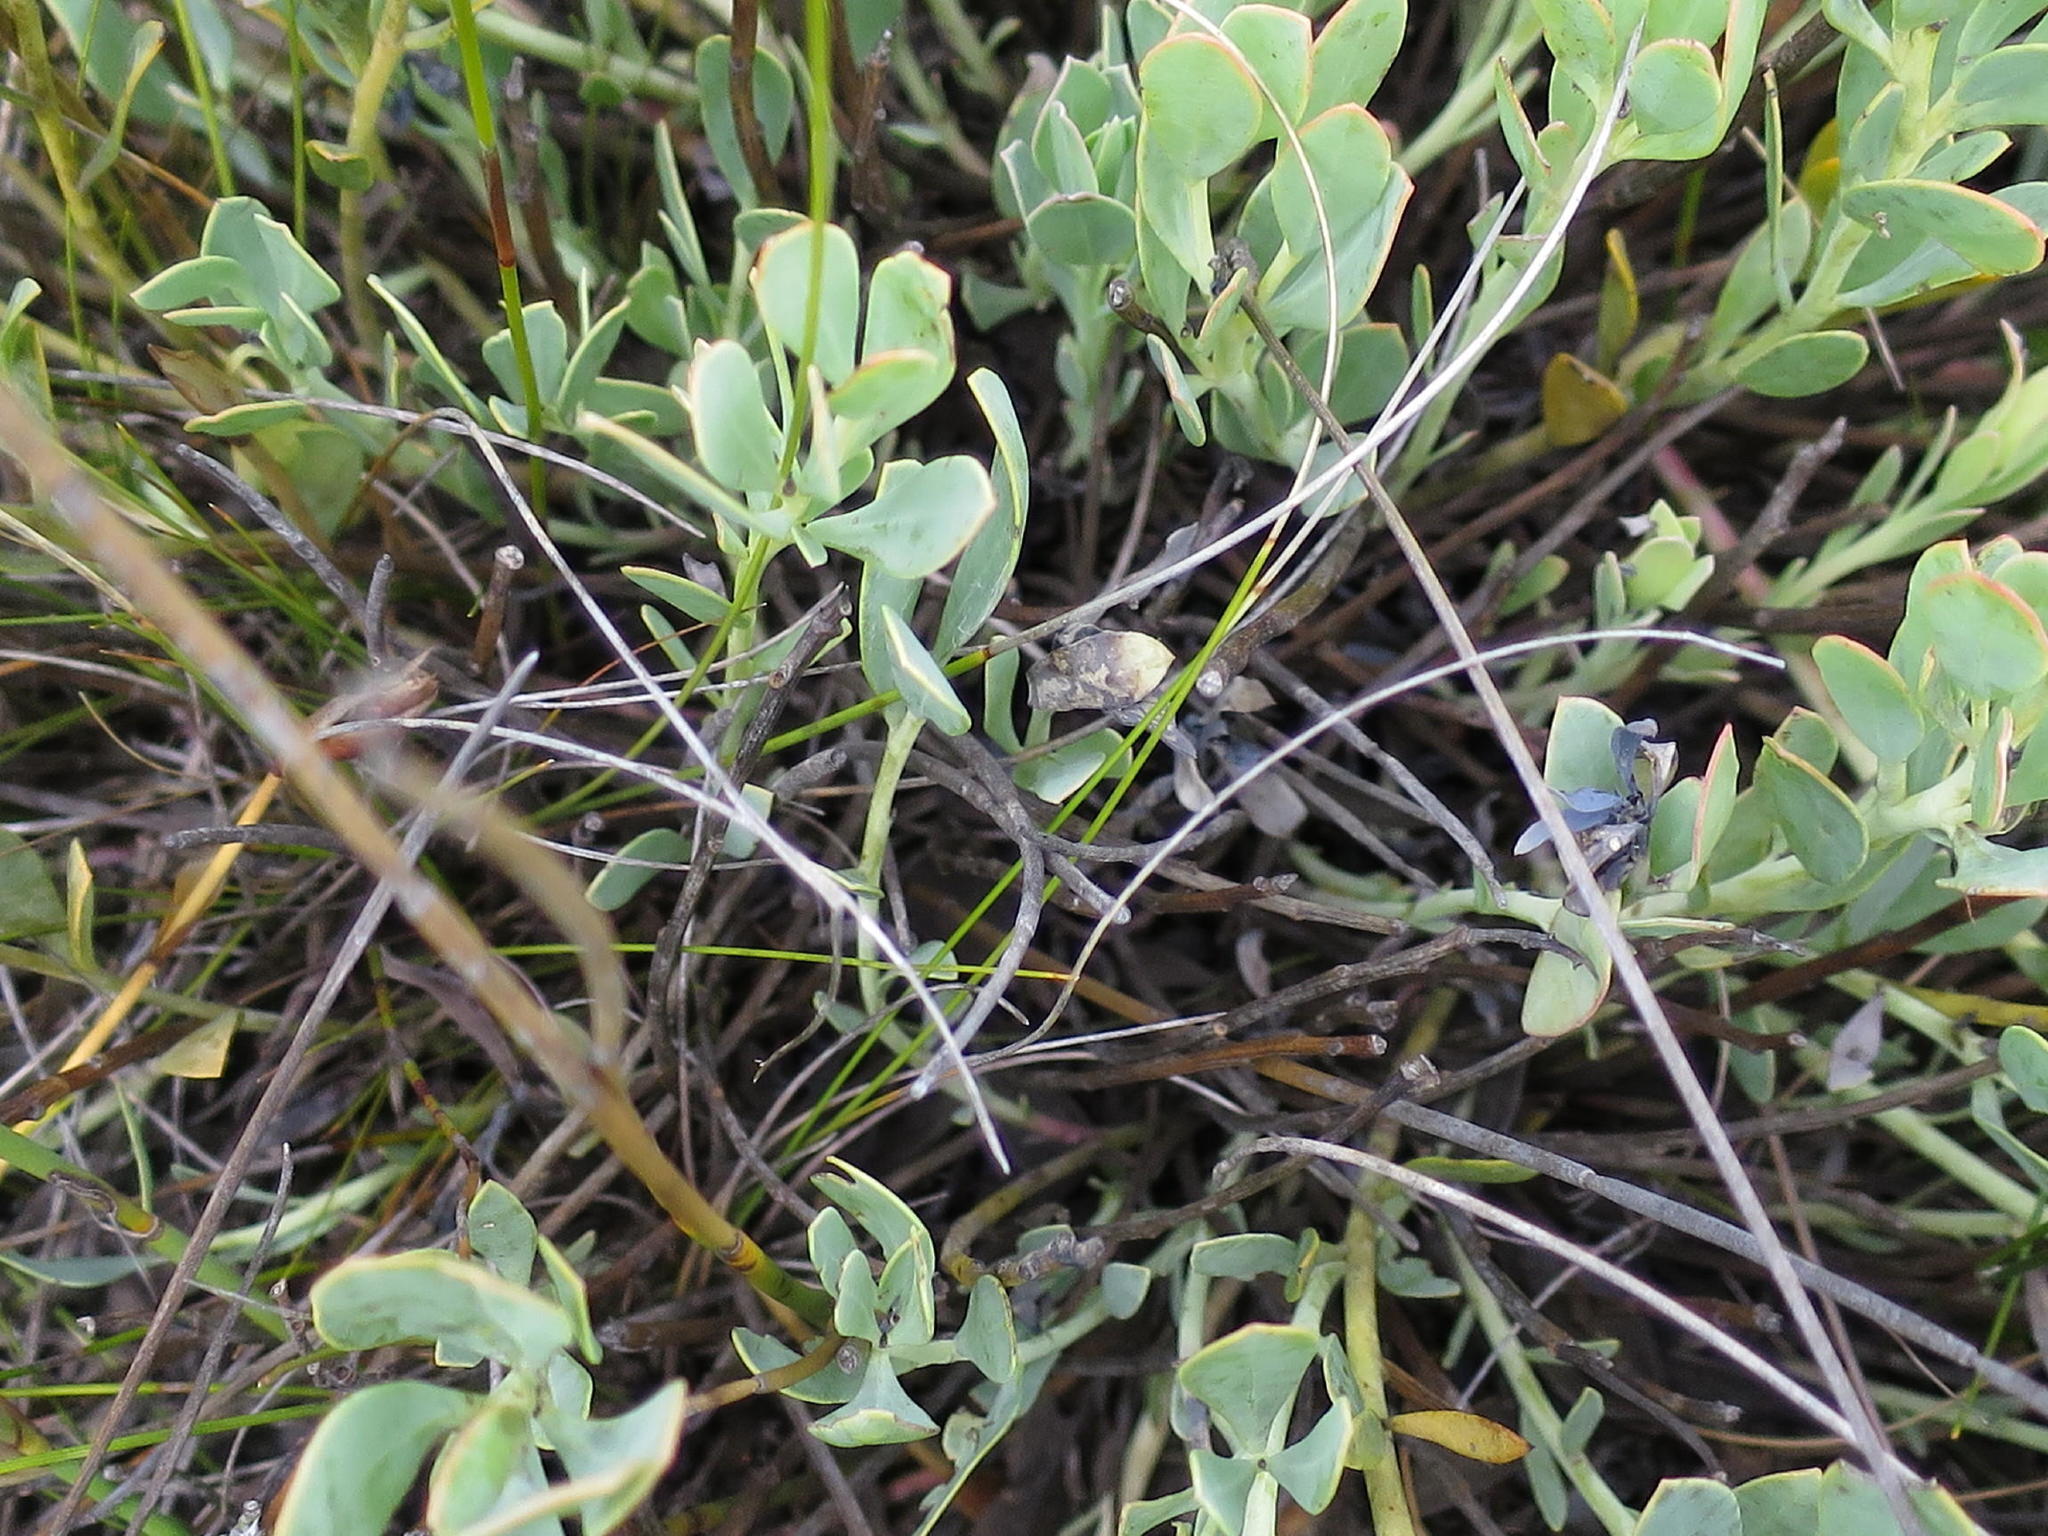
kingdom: Plantae
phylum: Tracheophyta
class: Magnoliopsida
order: Fabales
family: Fabaceae
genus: Rafnia
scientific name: Rafnia rostrata
